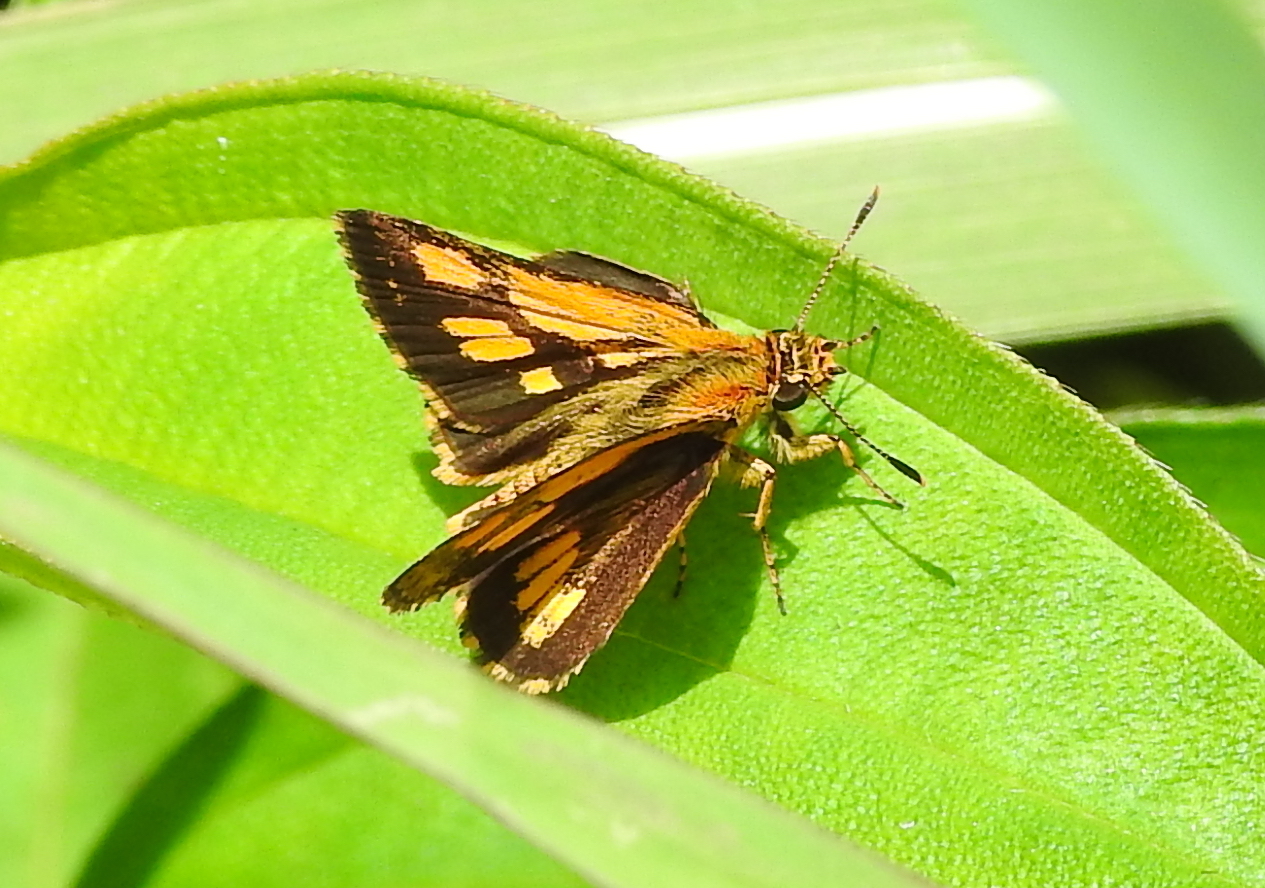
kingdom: Animalia
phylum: Arthropoda
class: Insecta
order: Lepidoptera
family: Hesperiidae
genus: Ampittia
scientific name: Ampittia dioscorides
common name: Common bush hopper
